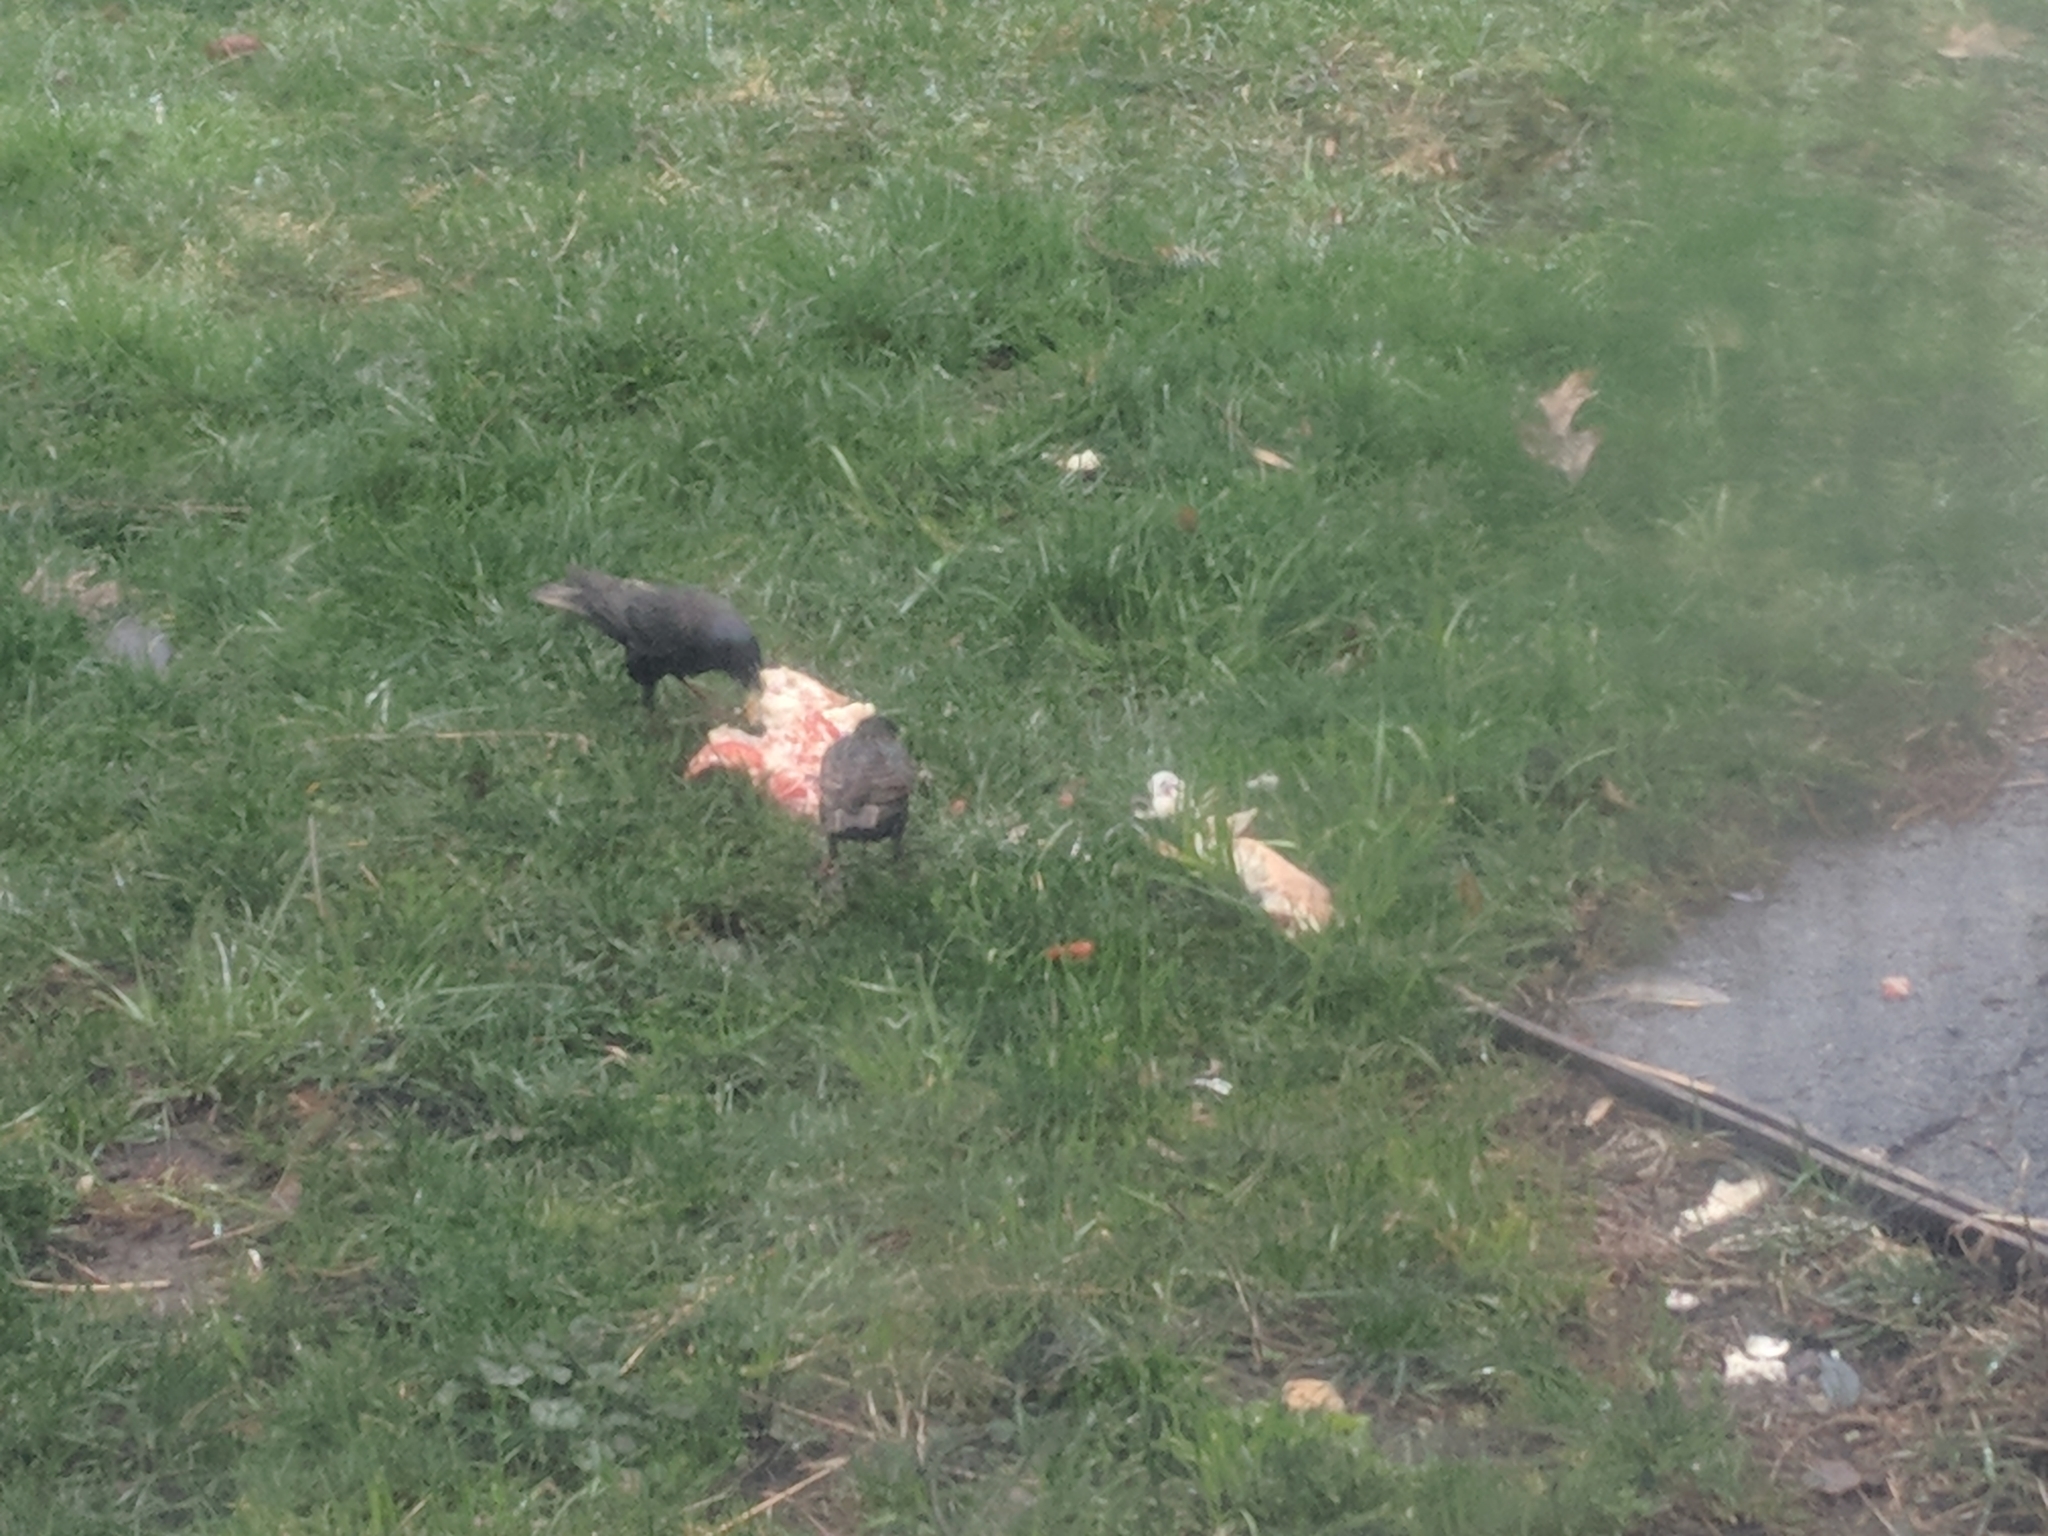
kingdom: Animalia
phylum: Chordata
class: Aves
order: Passeriformes
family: Sturnidae
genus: Sturnus
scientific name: Sturnus vulgaris
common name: Common starling
